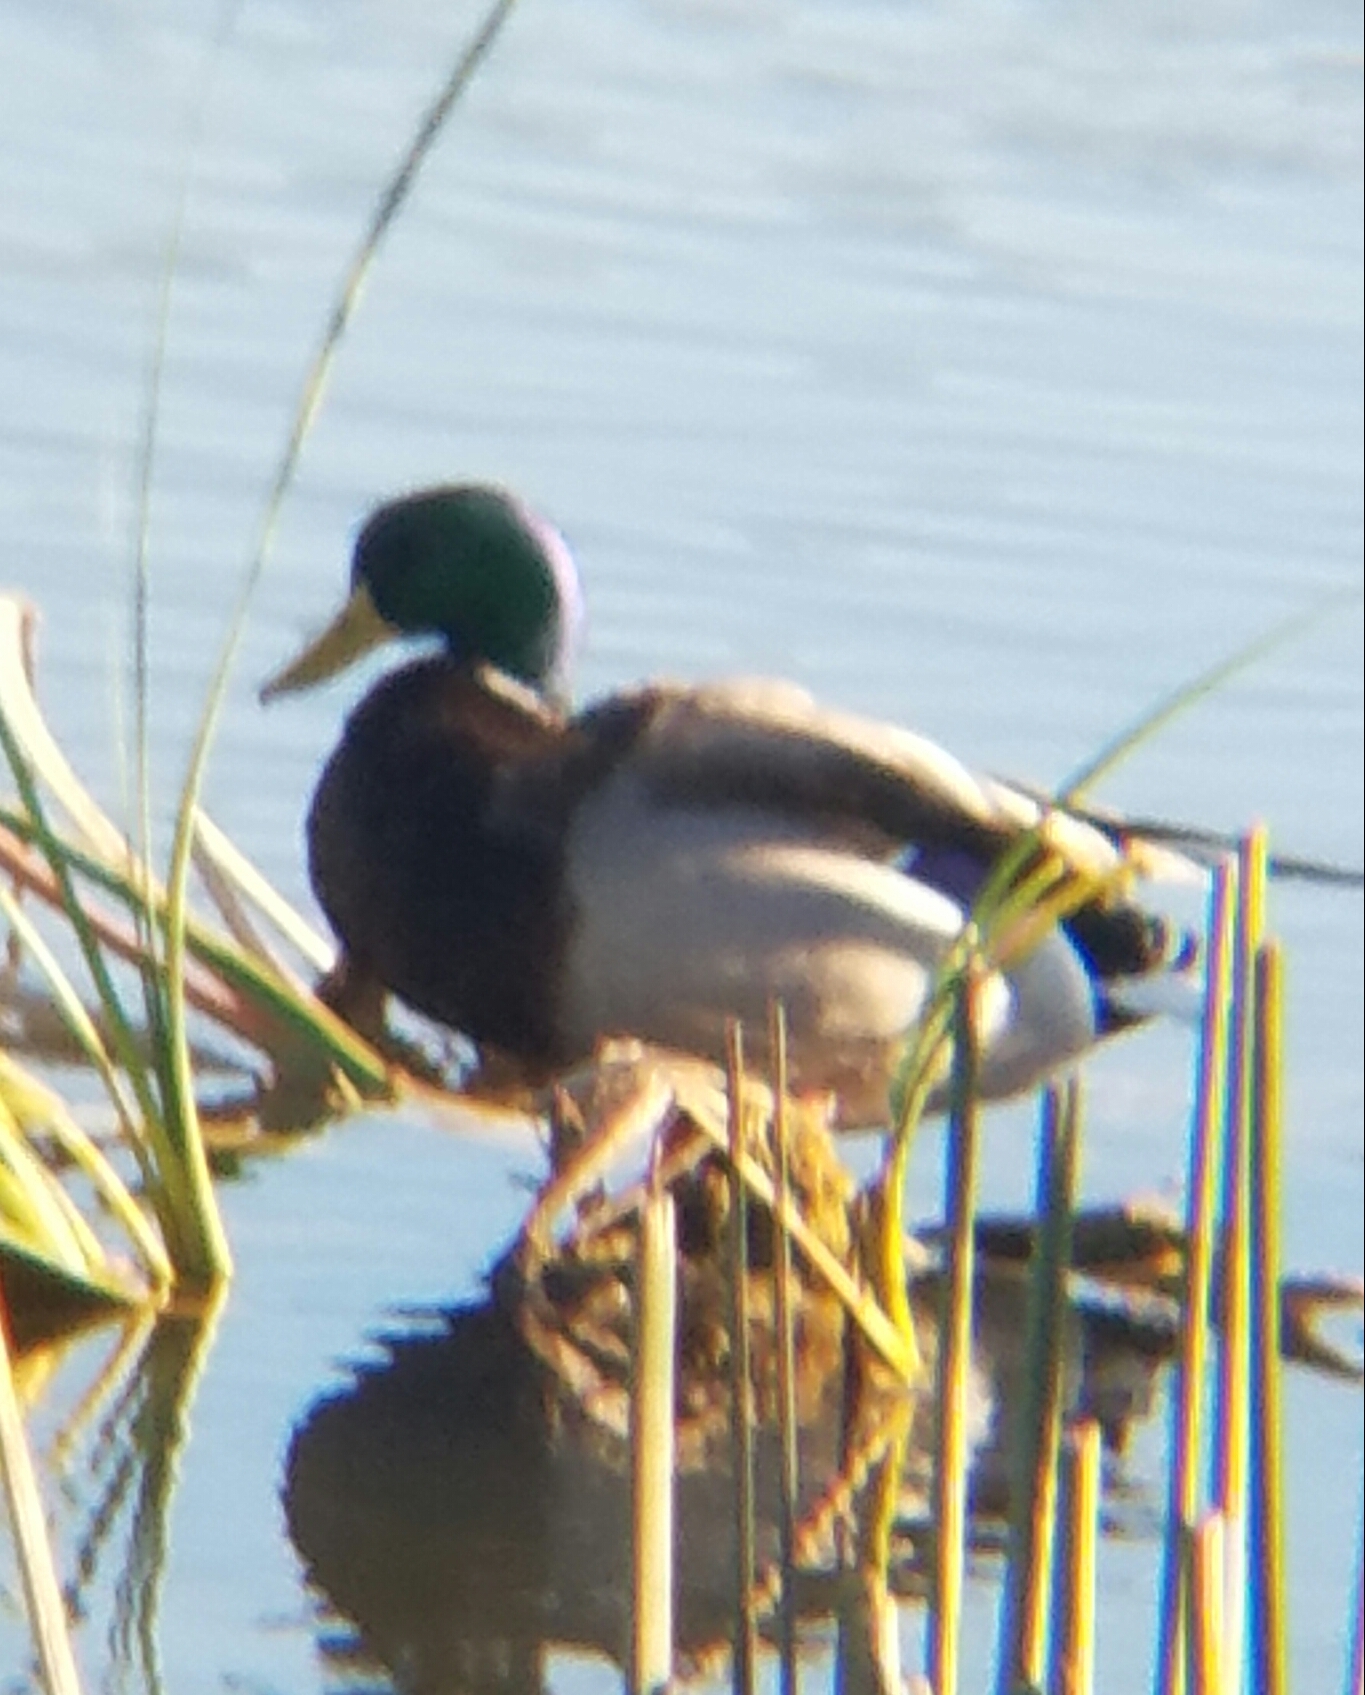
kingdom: Animalia
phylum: Chordata
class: Aves
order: Anseriformes
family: Anatidae
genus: Anas
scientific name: Anas platyrhynchos
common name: Mallard
